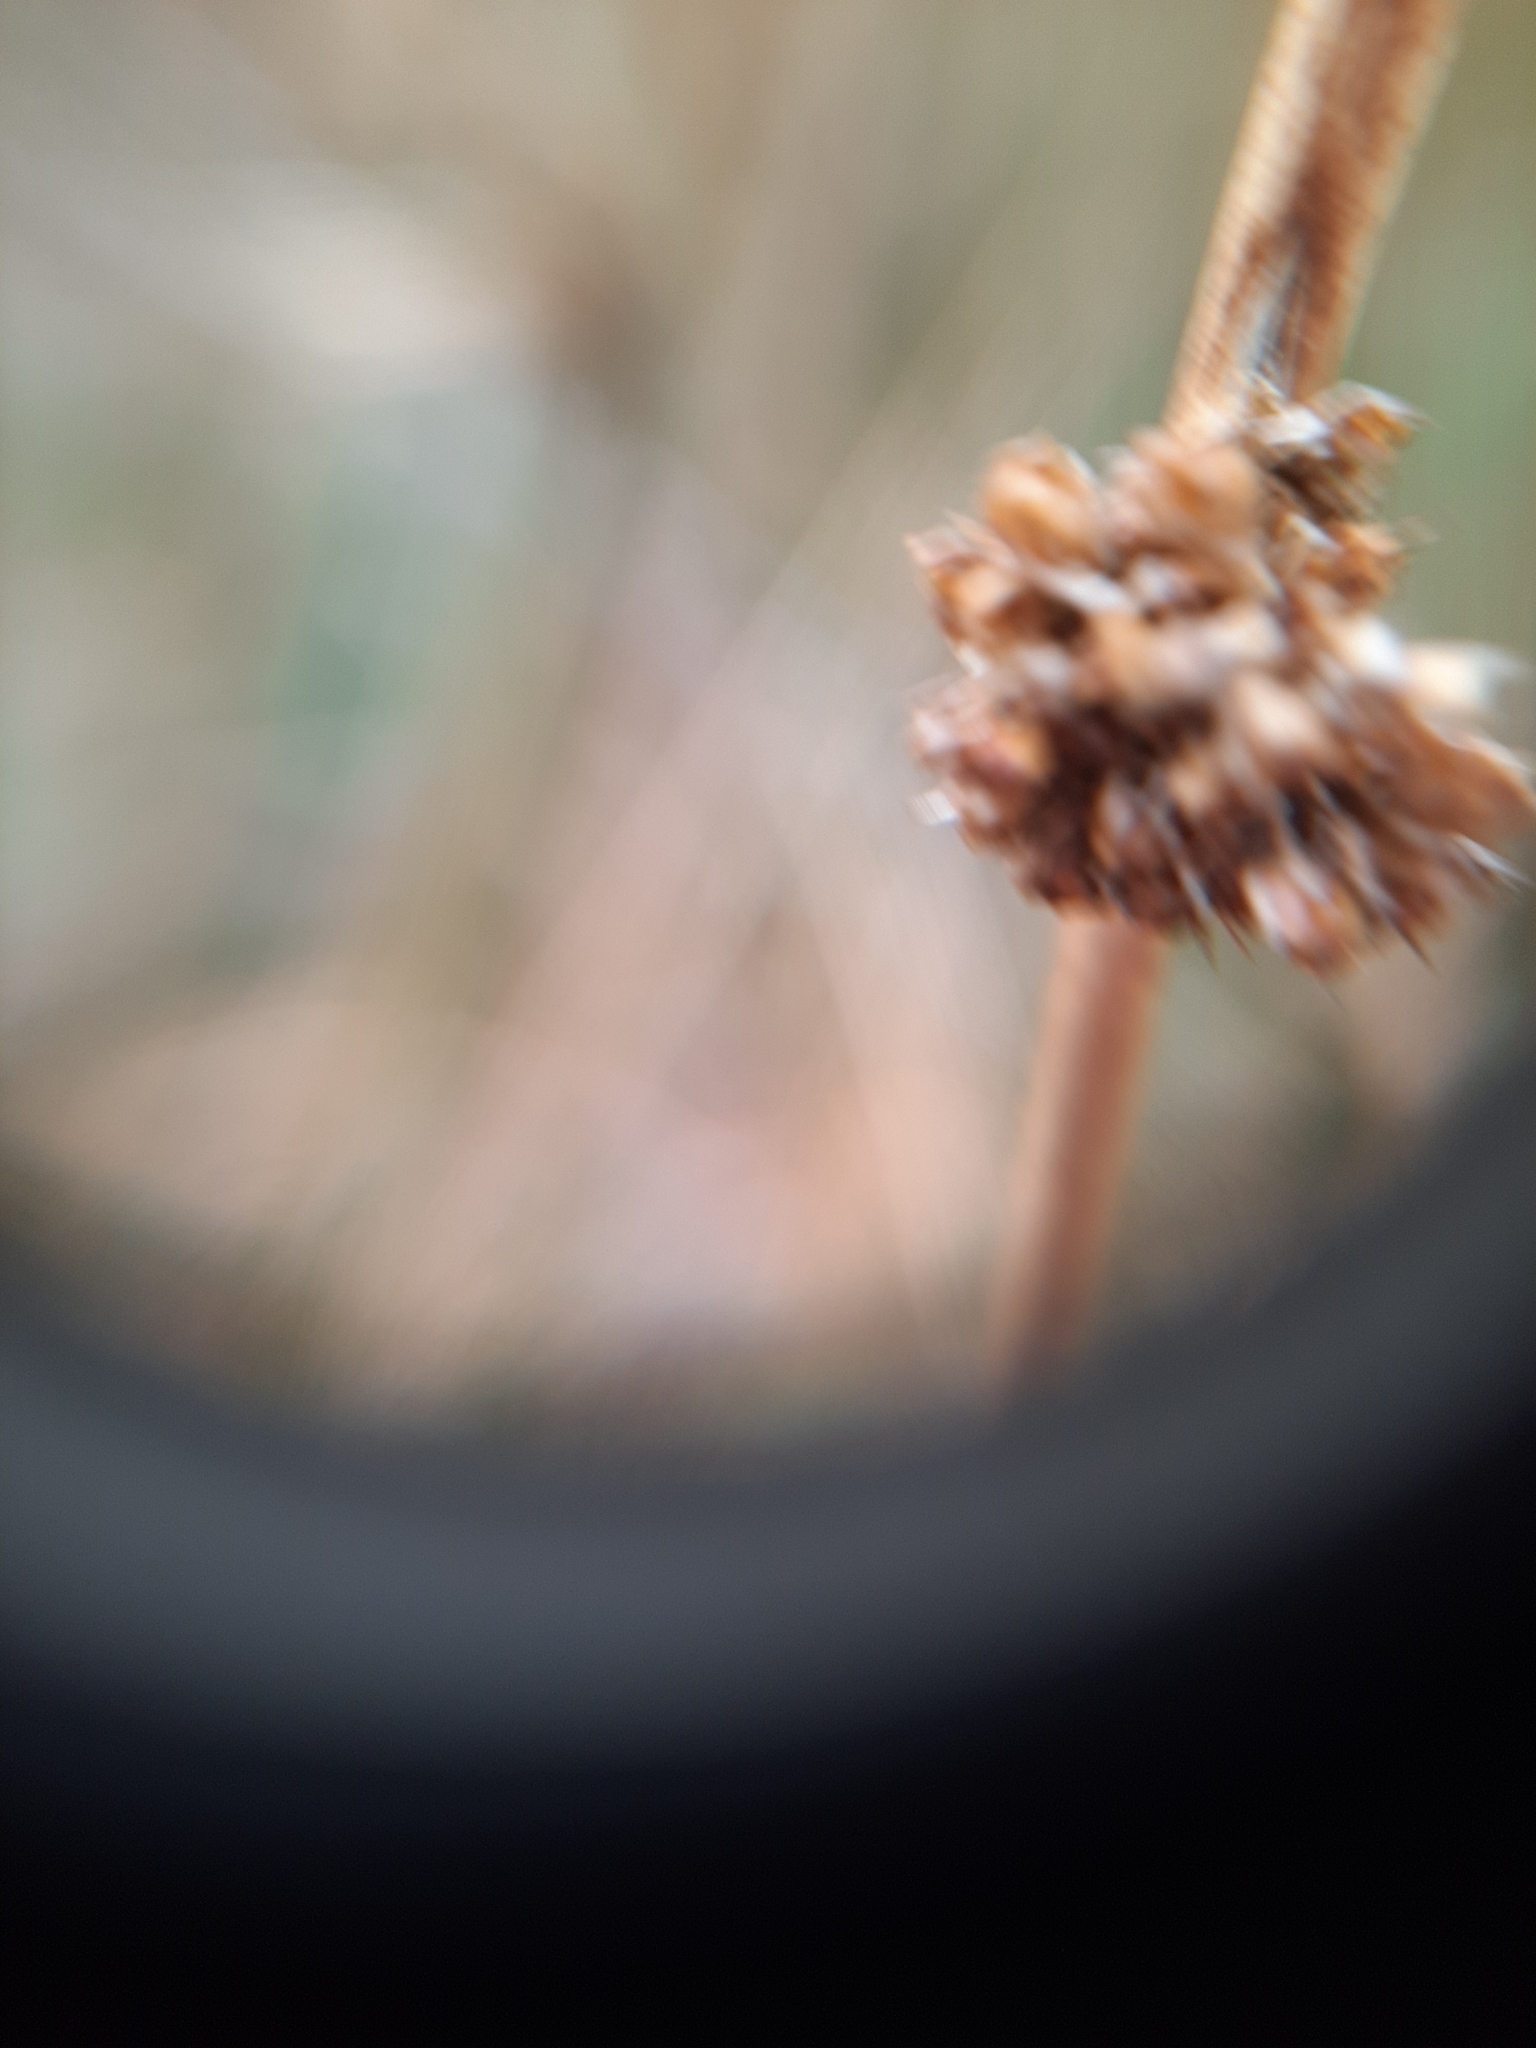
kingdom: Plantae
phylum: Tracheophyta
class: Liliopsida
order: Poales
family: Juncaceae
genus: Juncus
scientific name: Juncus effusus
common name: Soft rush
